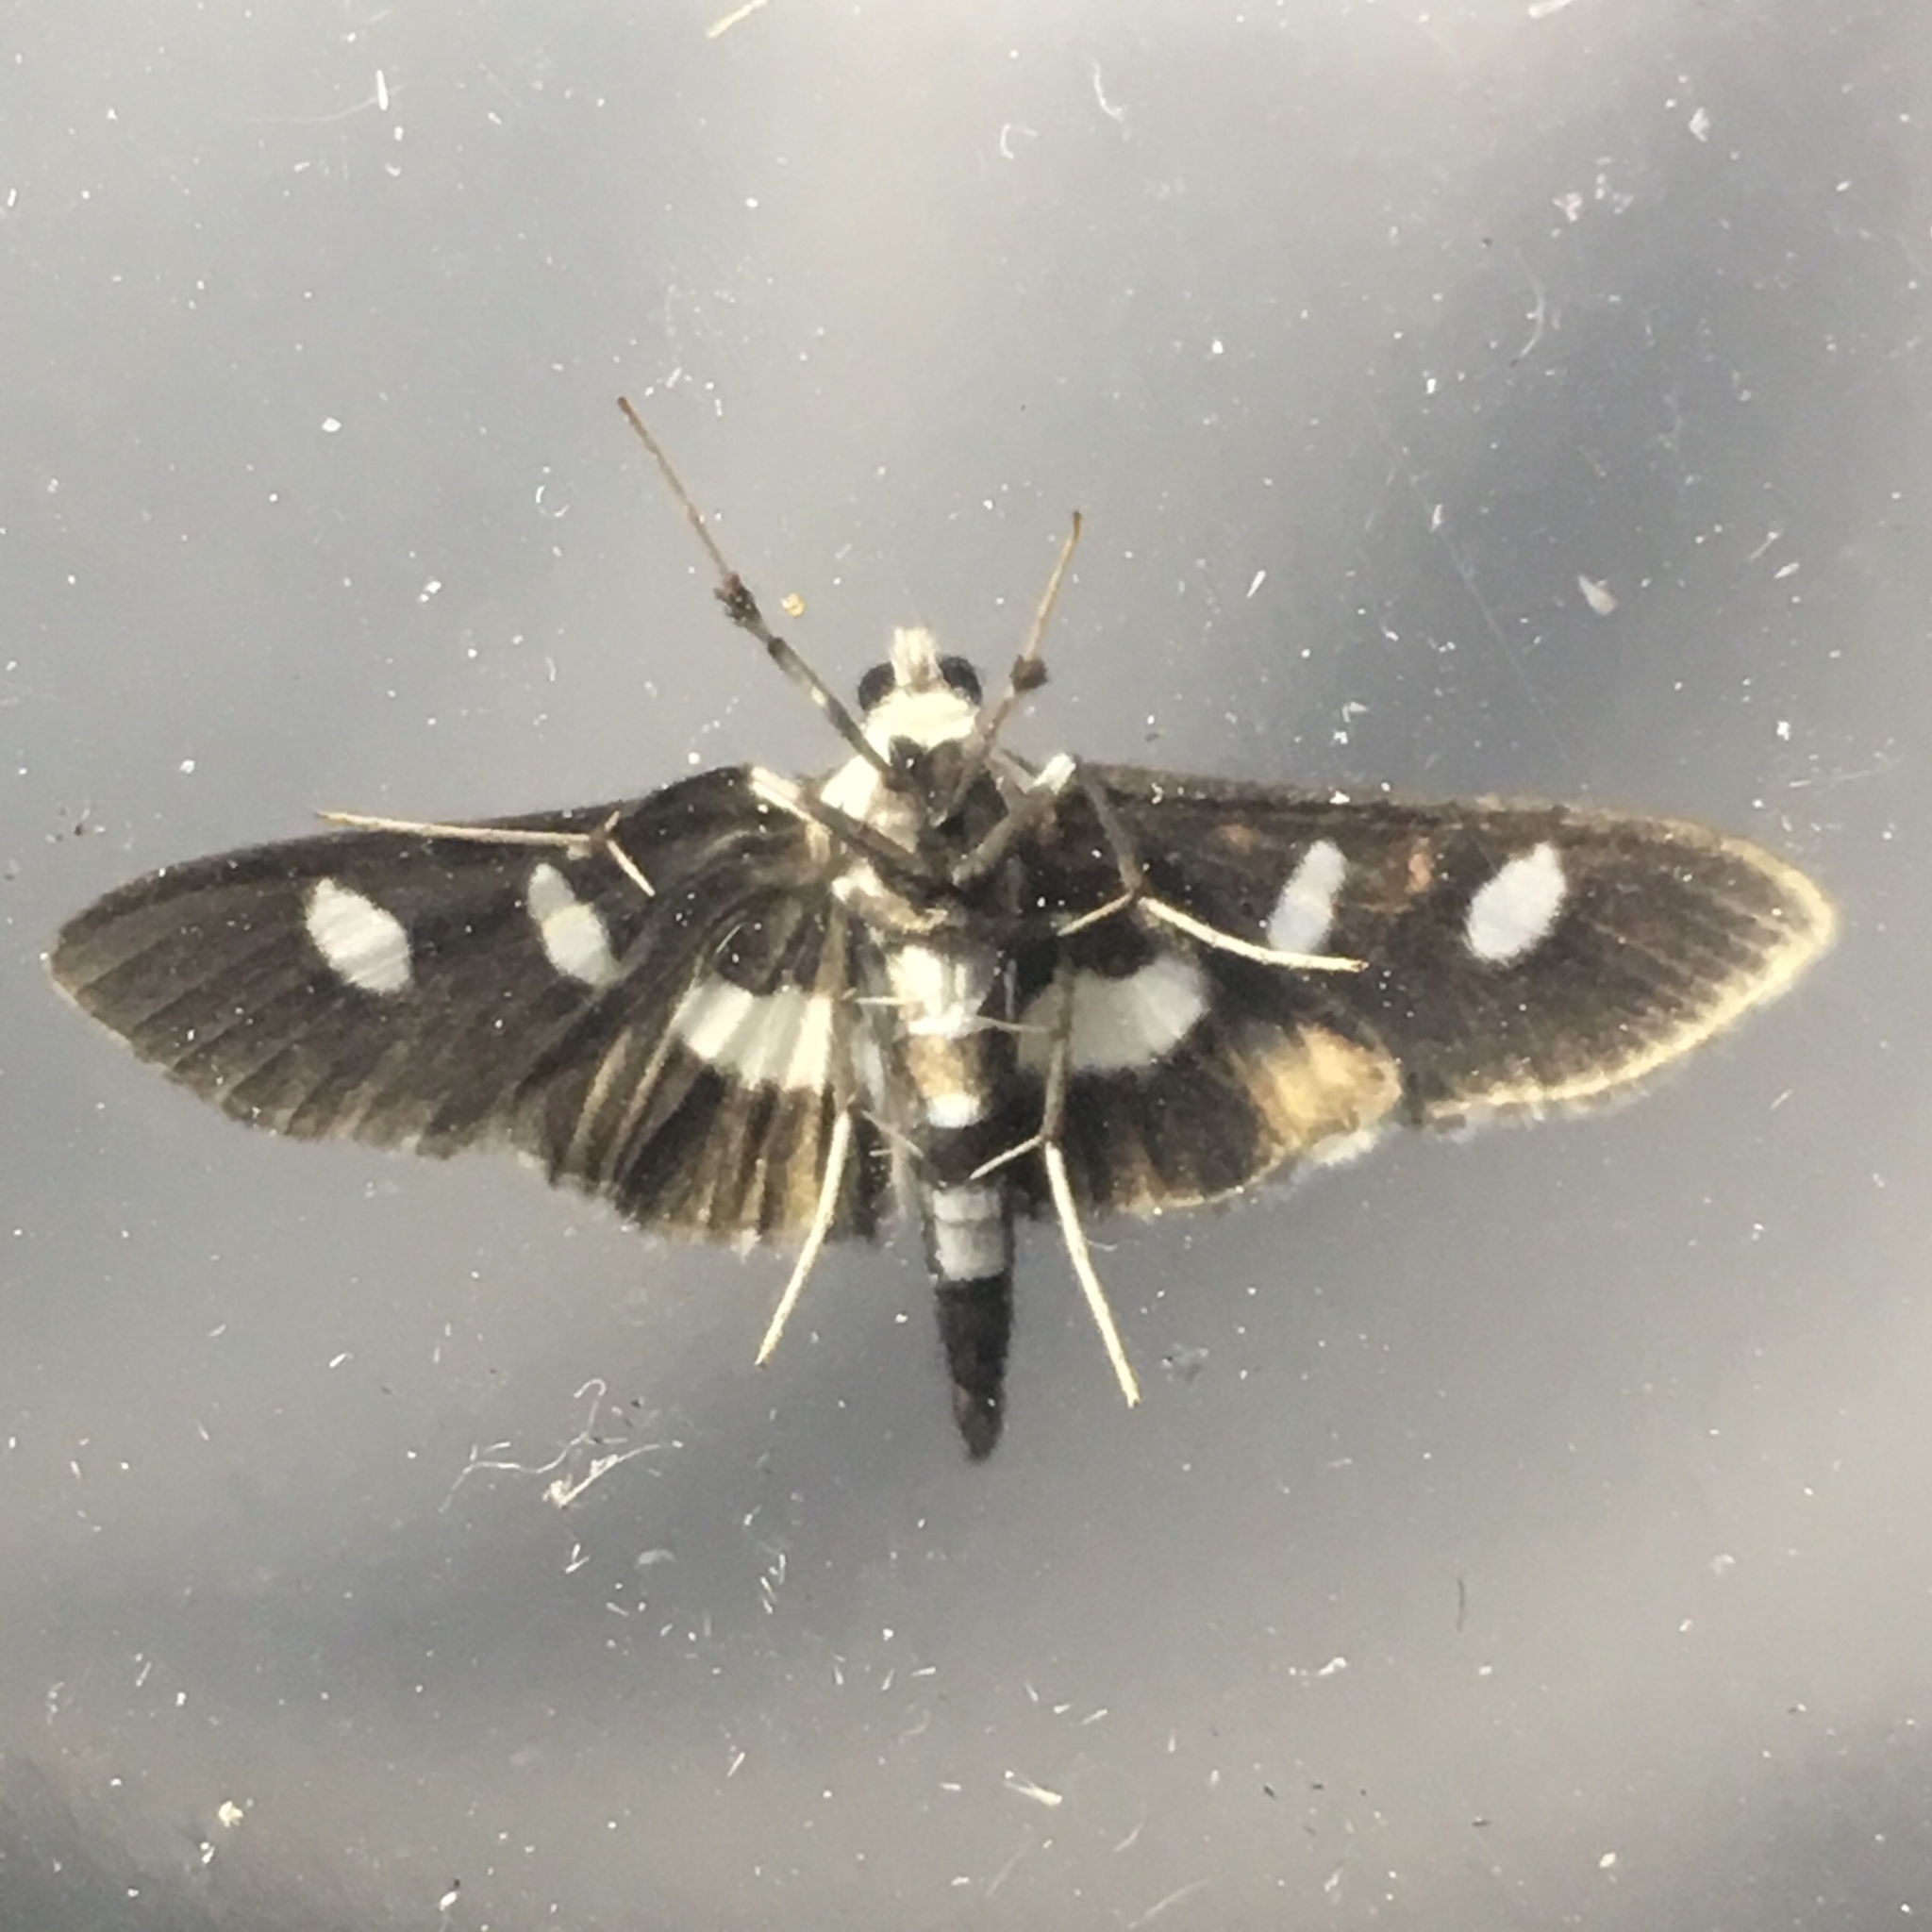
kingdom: Animalia
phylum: Arthropoda
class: Insecta
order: Lepidoptera
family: Crambidae
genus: Desmia
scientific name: Desmia funeralis
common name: Grape leaf folder moth
